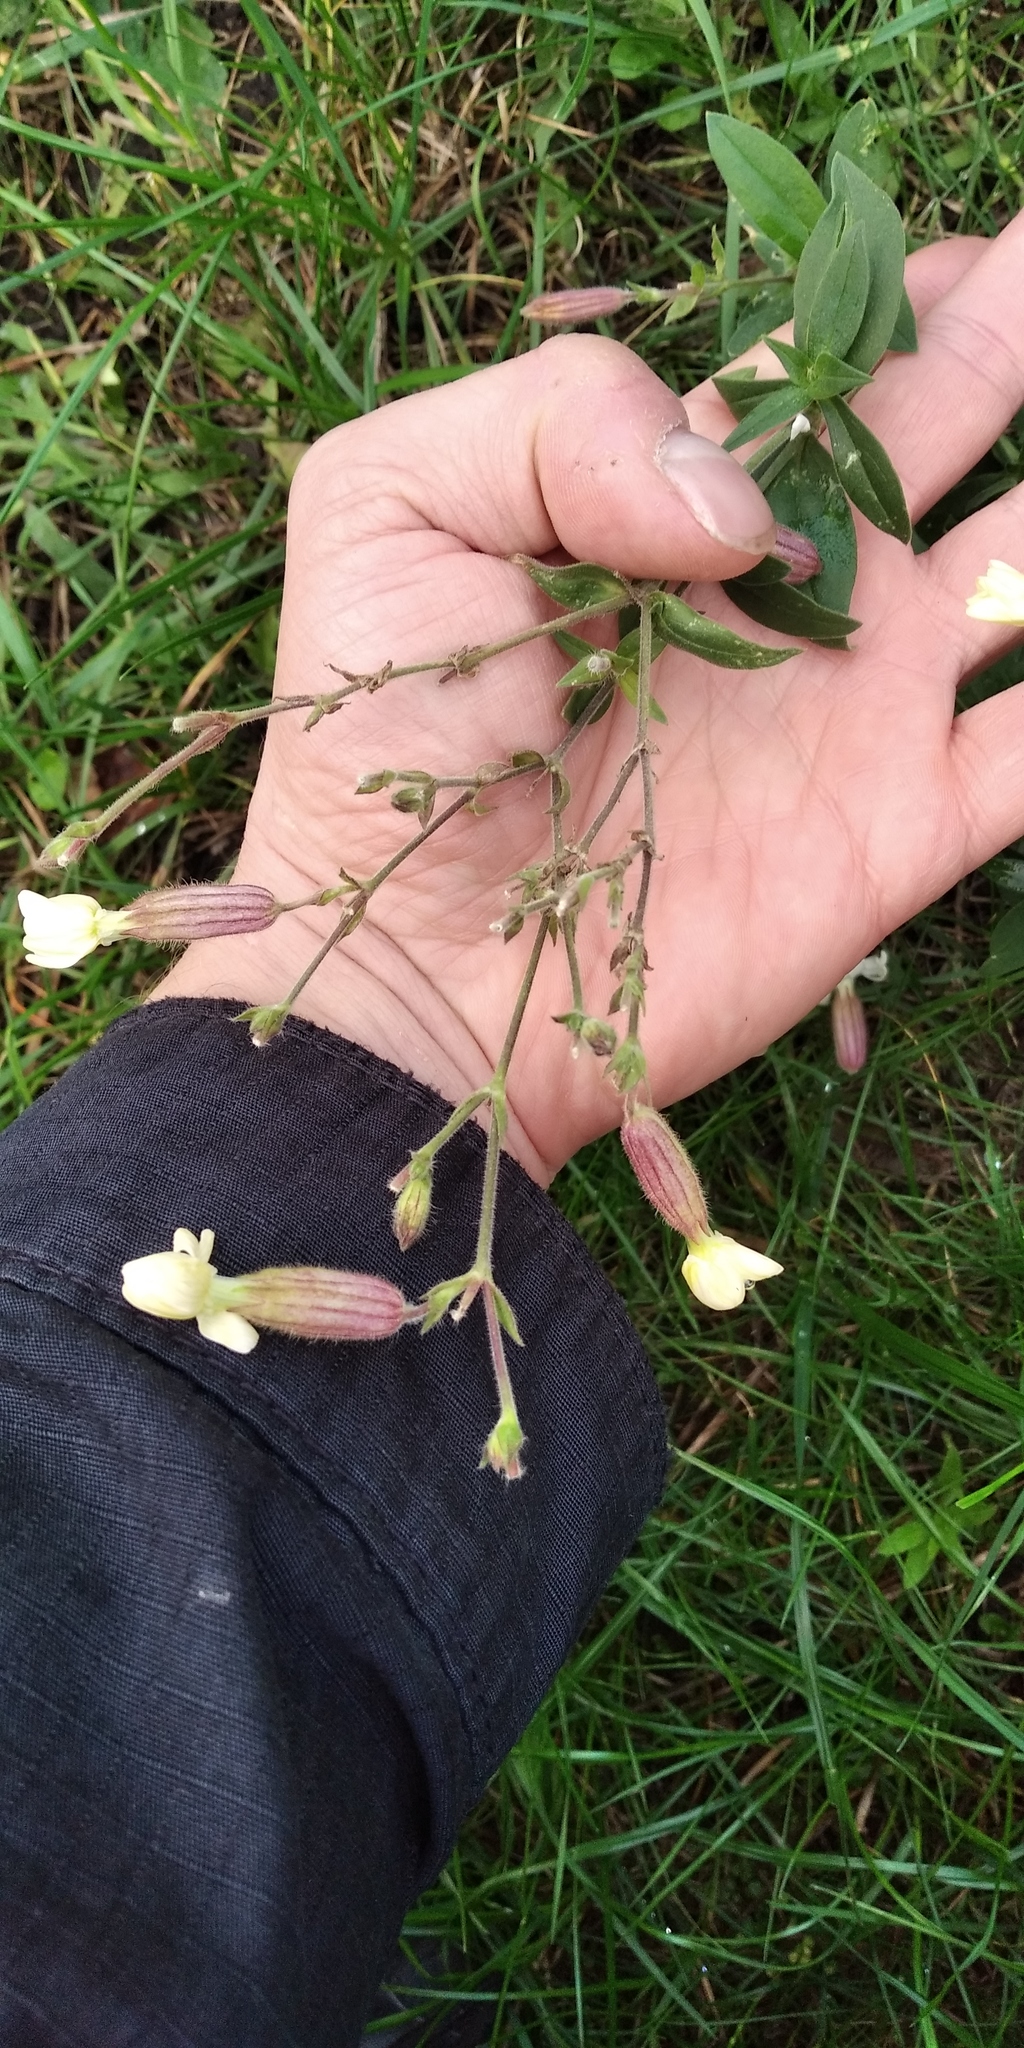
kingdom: Plantae
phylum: Tracheophyta
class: Magnoliopsida
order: Caryophyllales
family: Caryophyllaceae
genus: Silene
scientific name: Silene latifolia
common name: White campion
